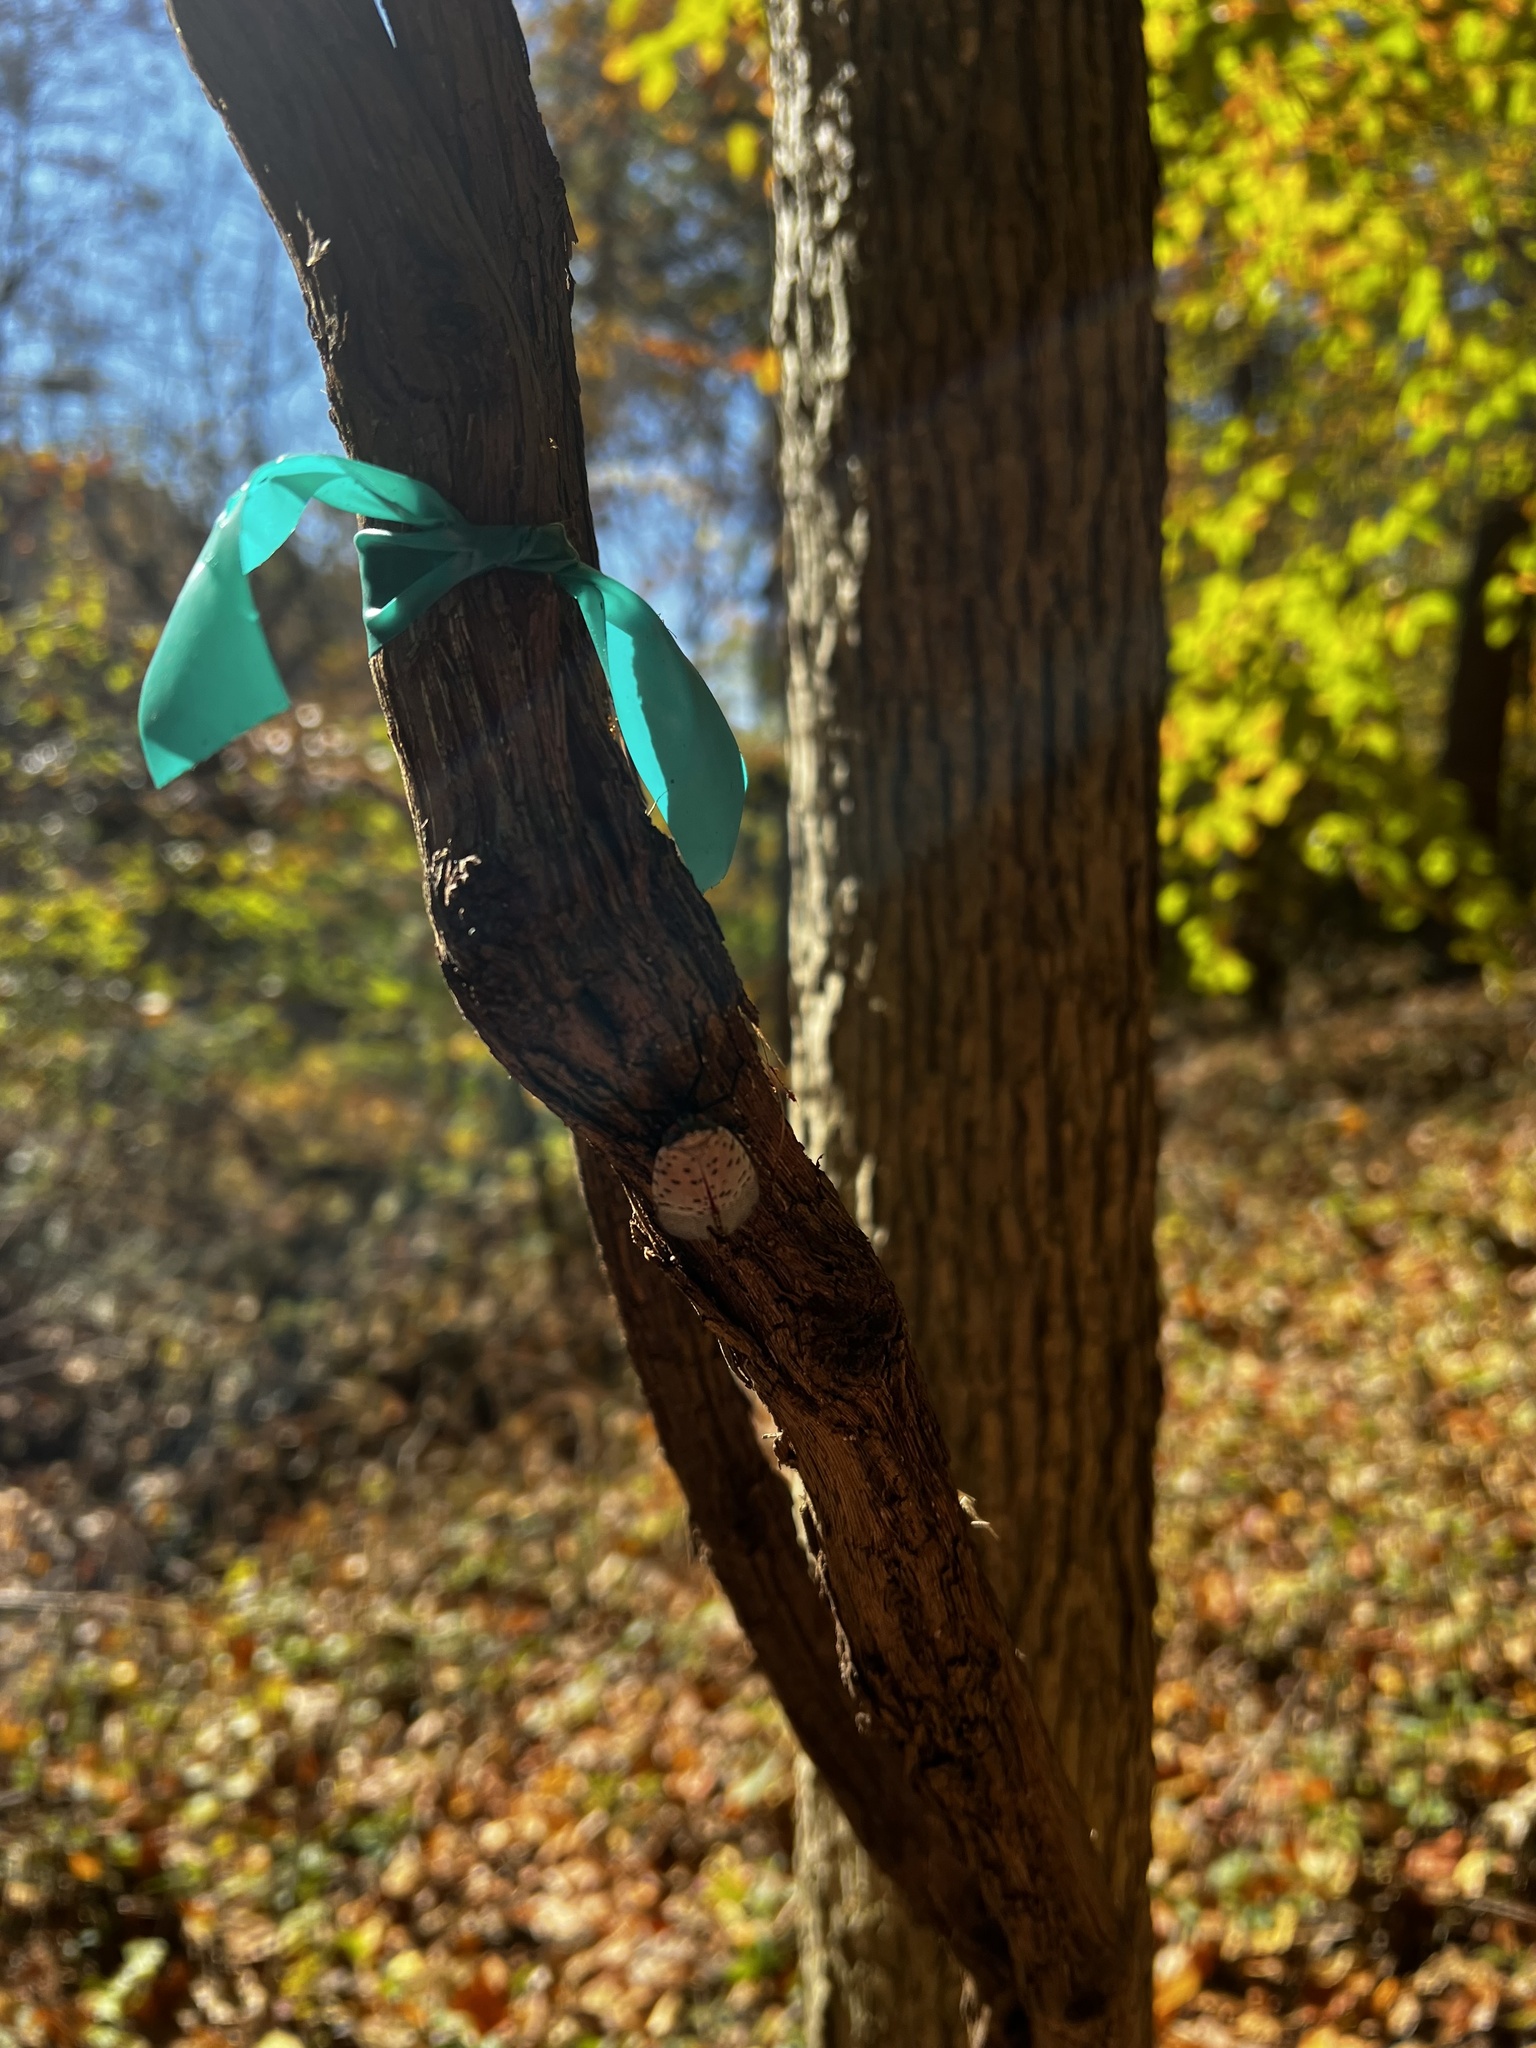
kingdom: Animalia
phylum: Arthropoda
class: Insecta
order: Hemiptera
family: Fulgoridae
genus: Lycorma
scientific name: Lycorma delicatula
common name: Spotted lanternfly
